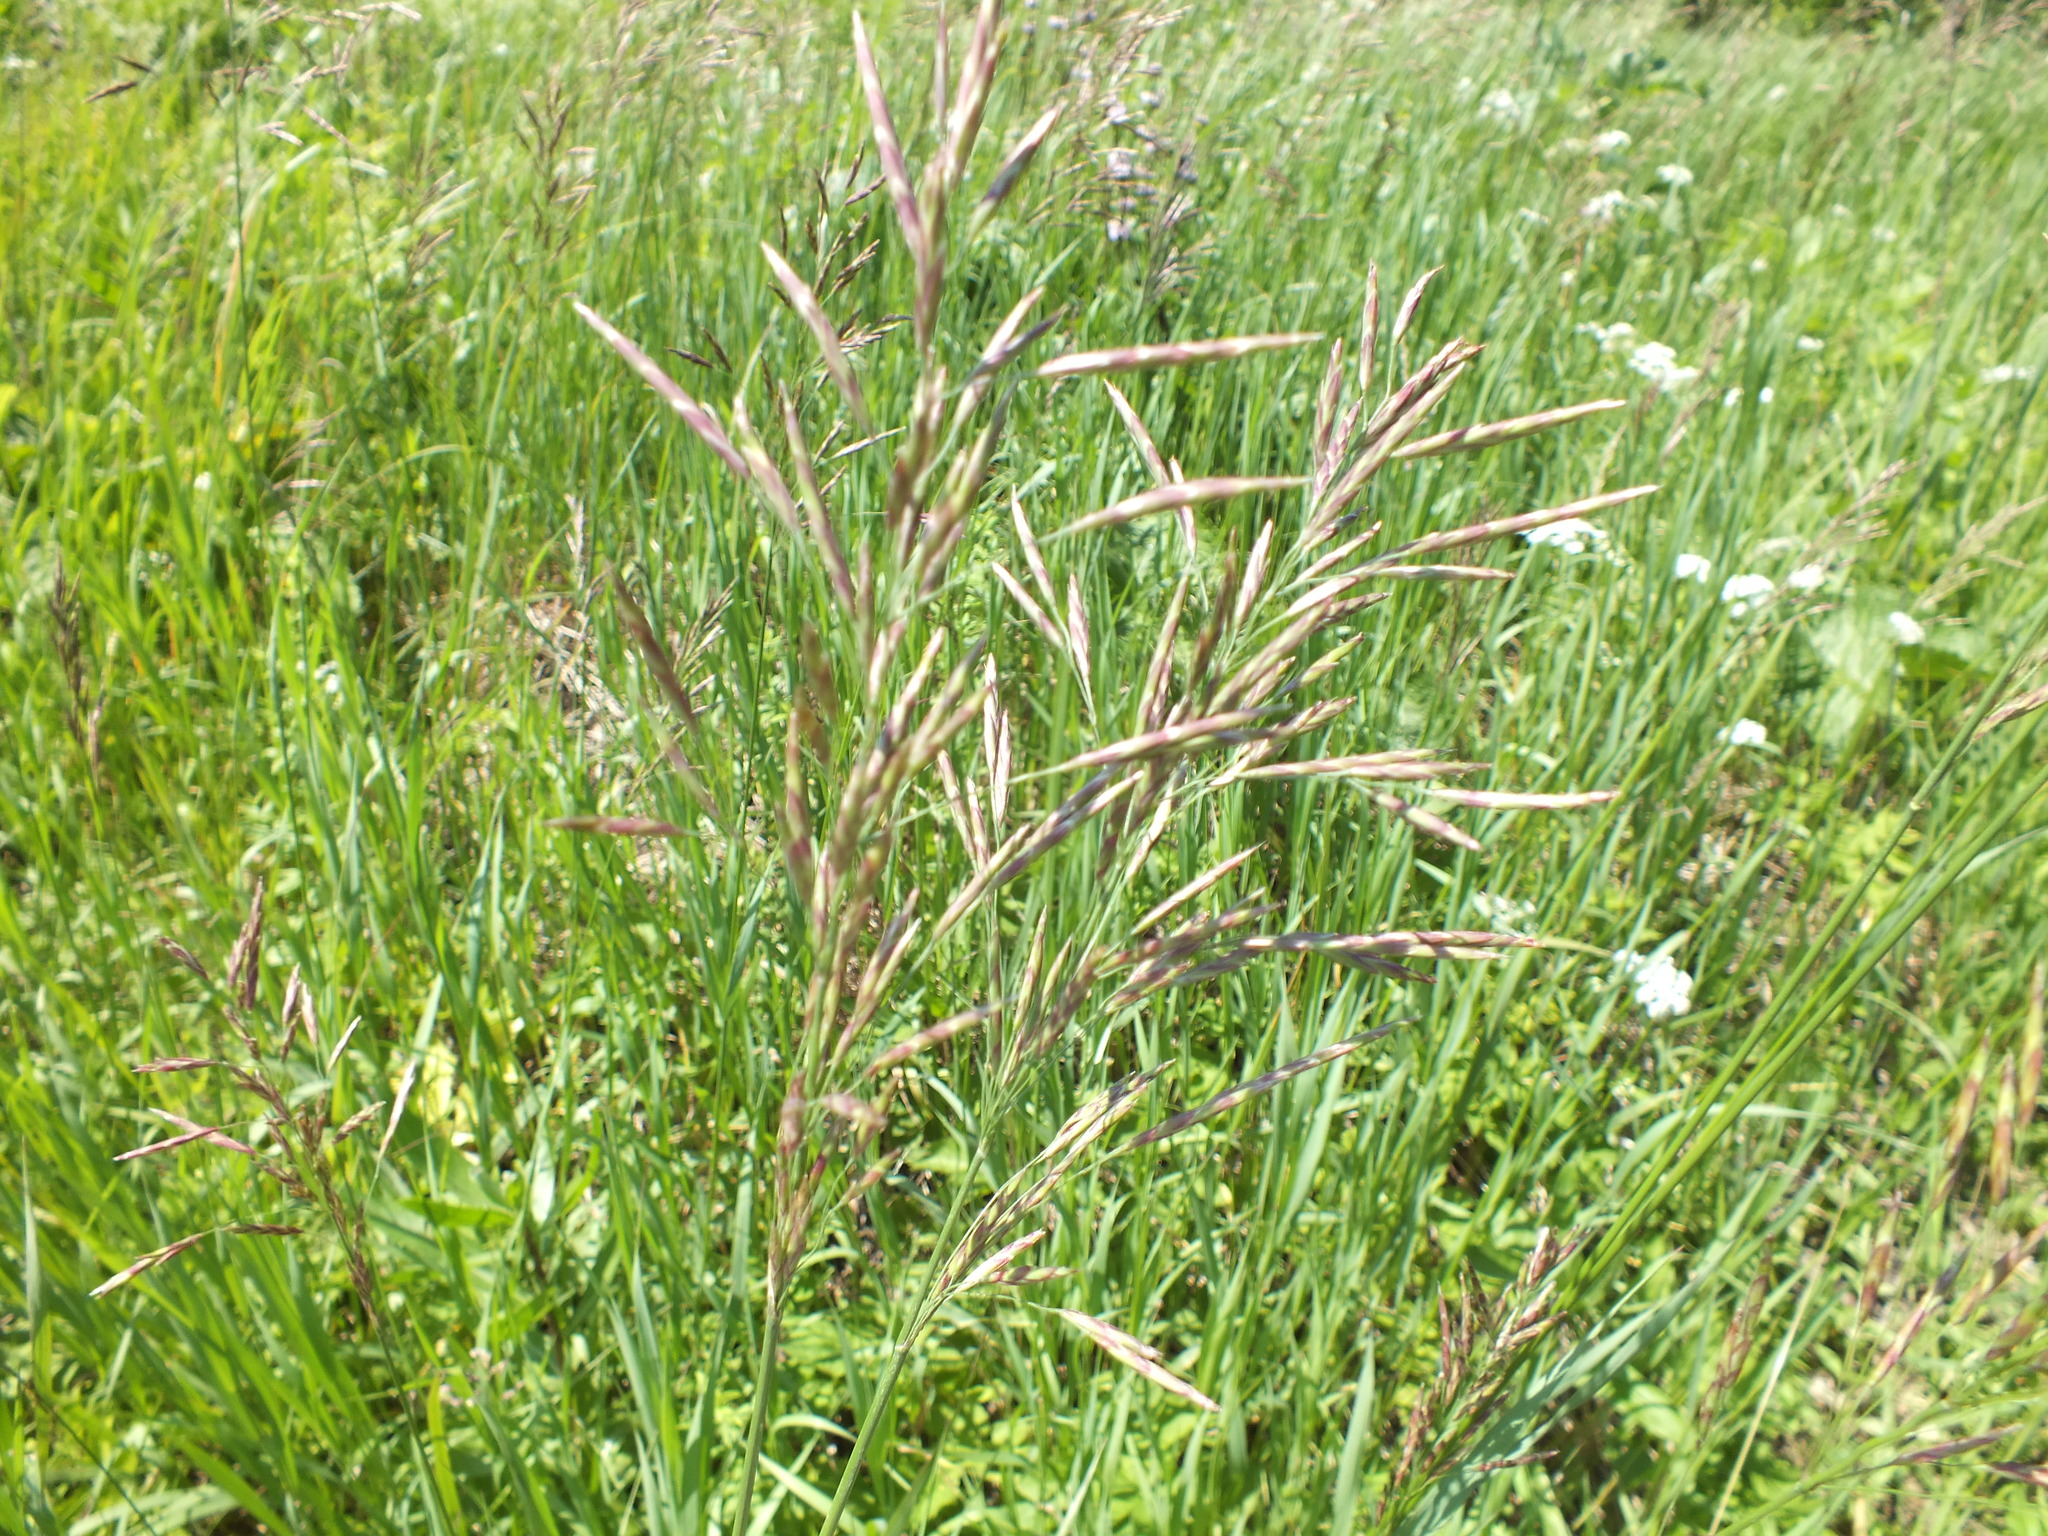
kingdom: Plantae
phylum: Tracheophyta
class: Liliopsida
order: Poales
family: Poaceae
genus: Bromus
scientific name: Bromus inermis
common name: Smooth brome
